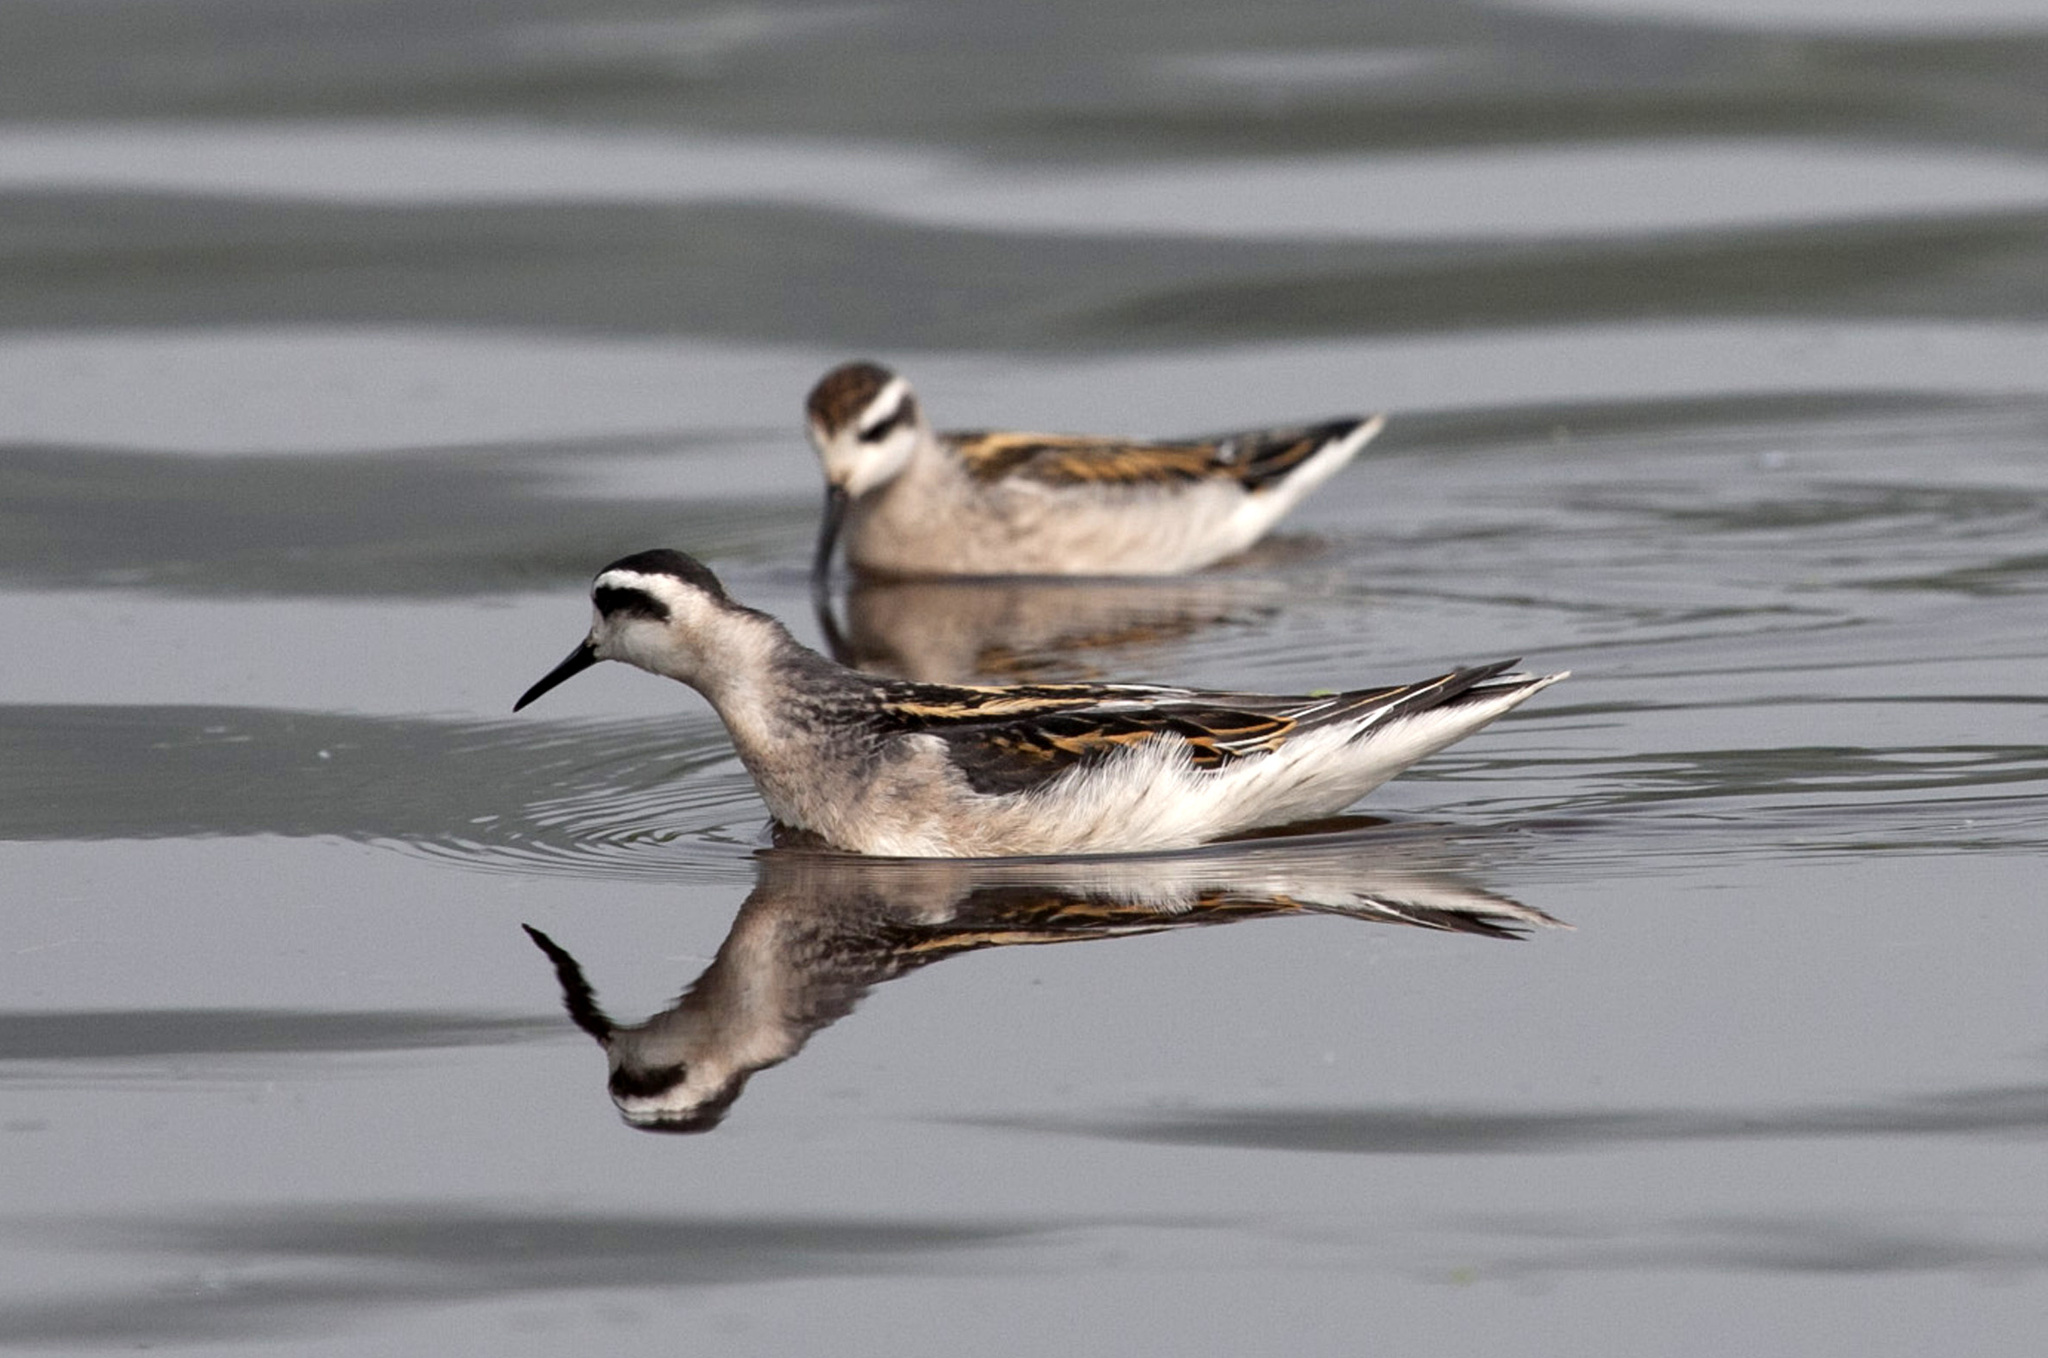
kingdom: Animalia
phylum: Chordata
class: Aves
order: Charadriiformes
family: Scolopacidae
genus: Phalaropus
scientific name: Phalaropus lobatus
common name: Red-necked phalarope
